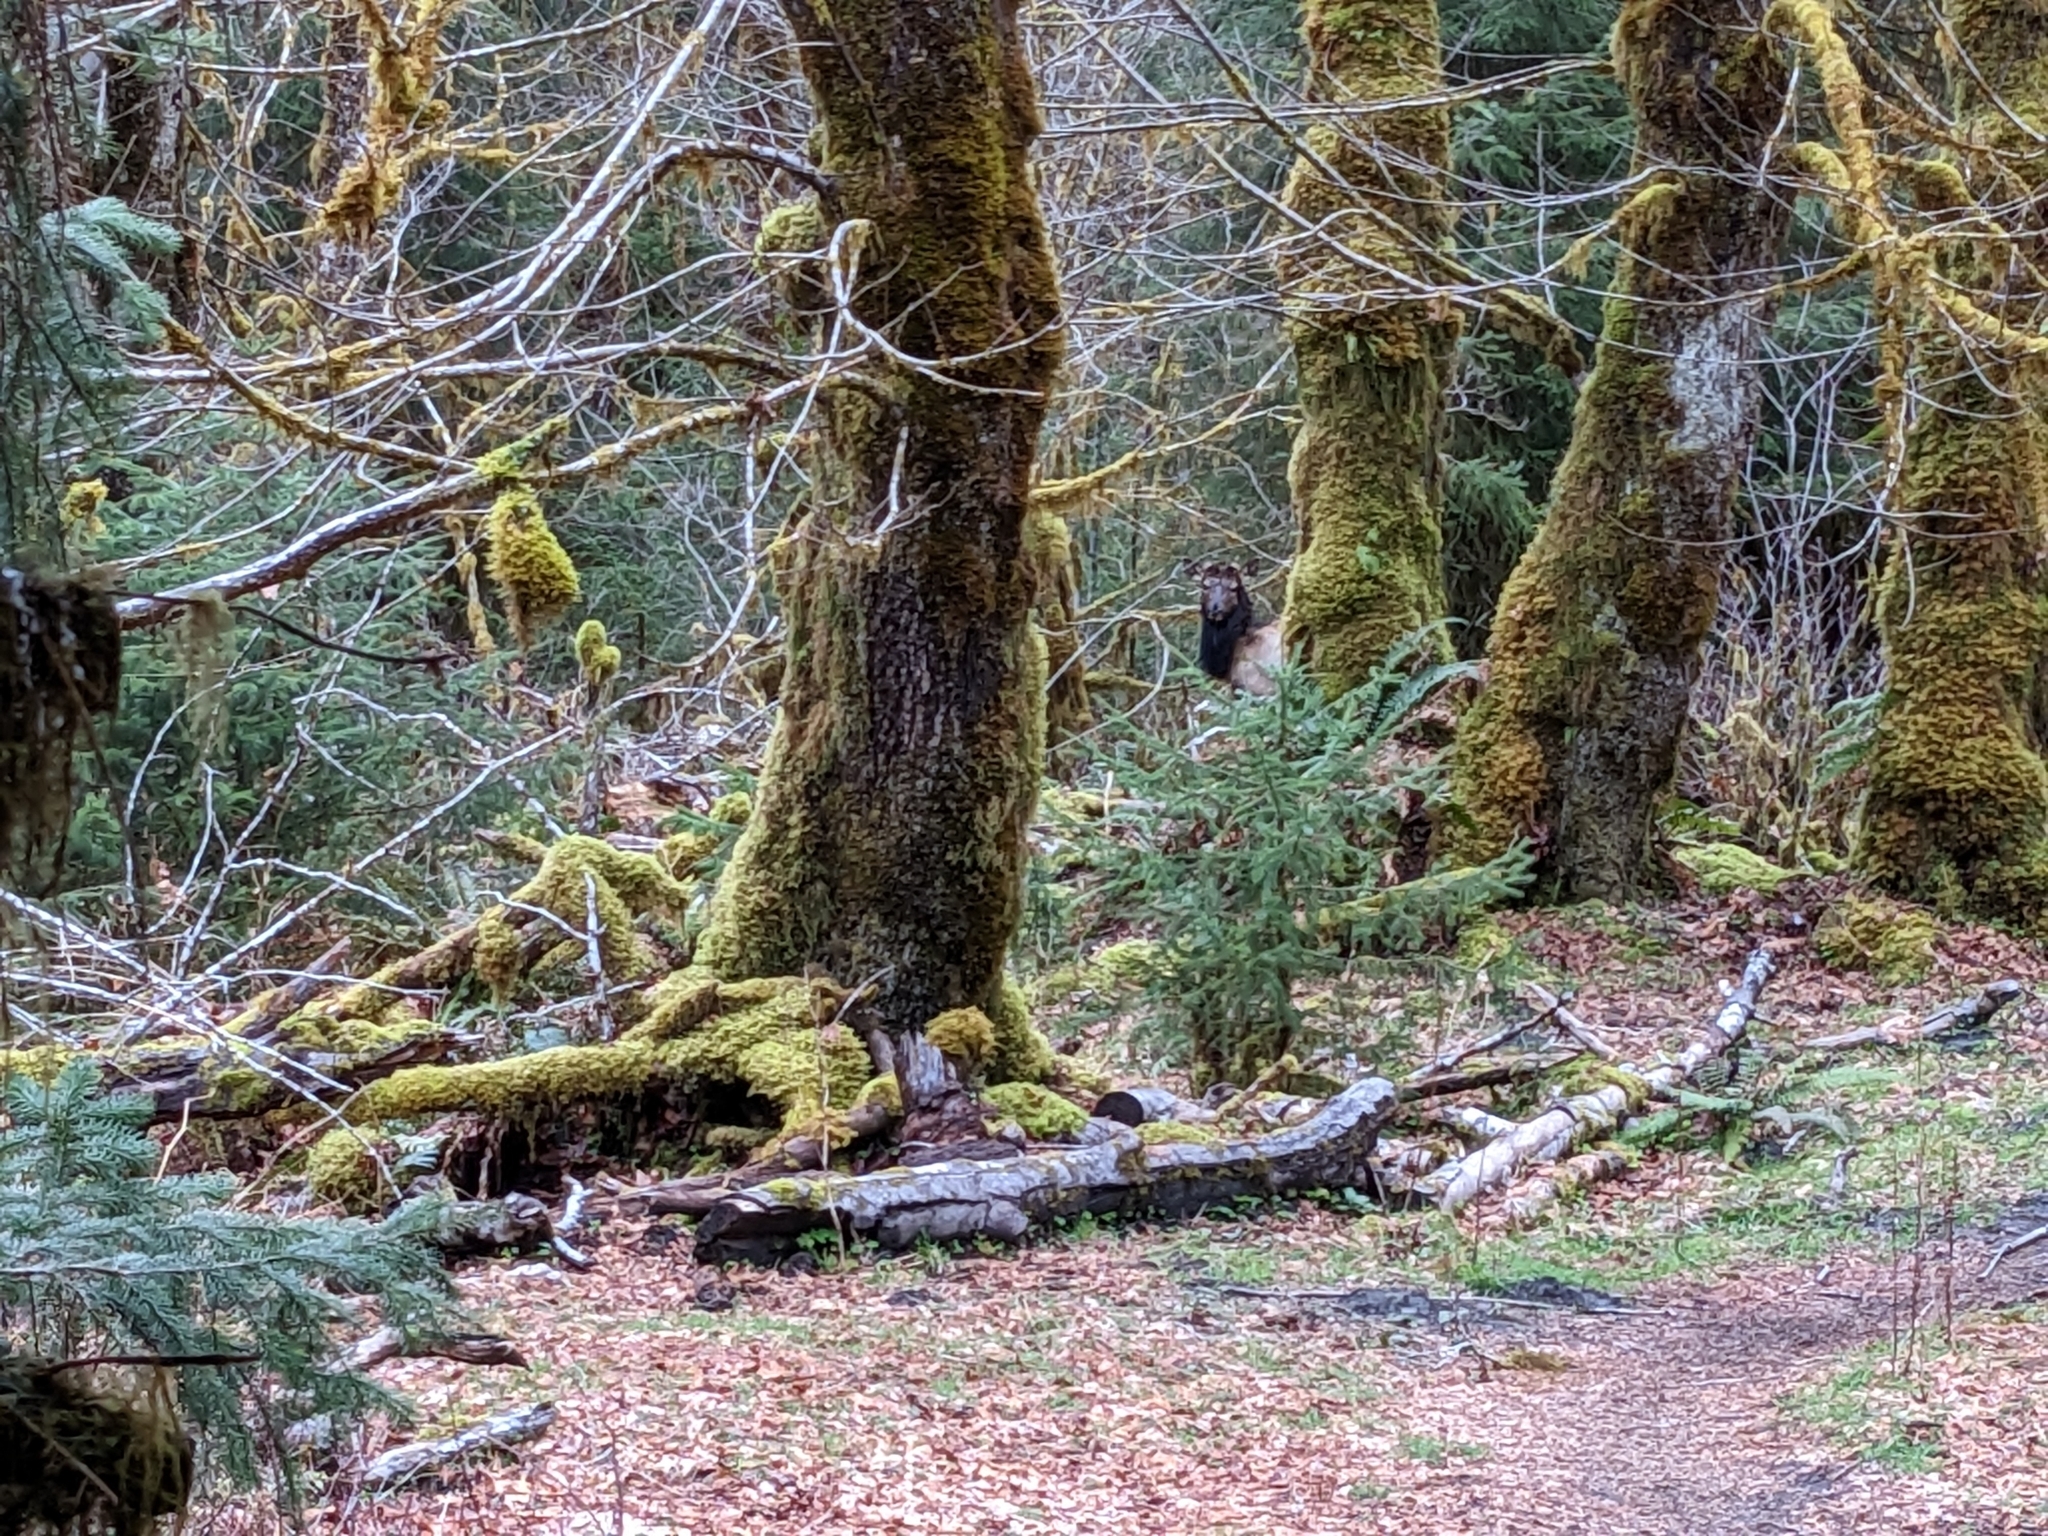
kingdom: Animalia
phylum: Chordata
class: Mammalia
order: Artiodactyla
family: Cervidae
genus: Cervus
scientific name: Cervus elaphus
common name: Red deer
